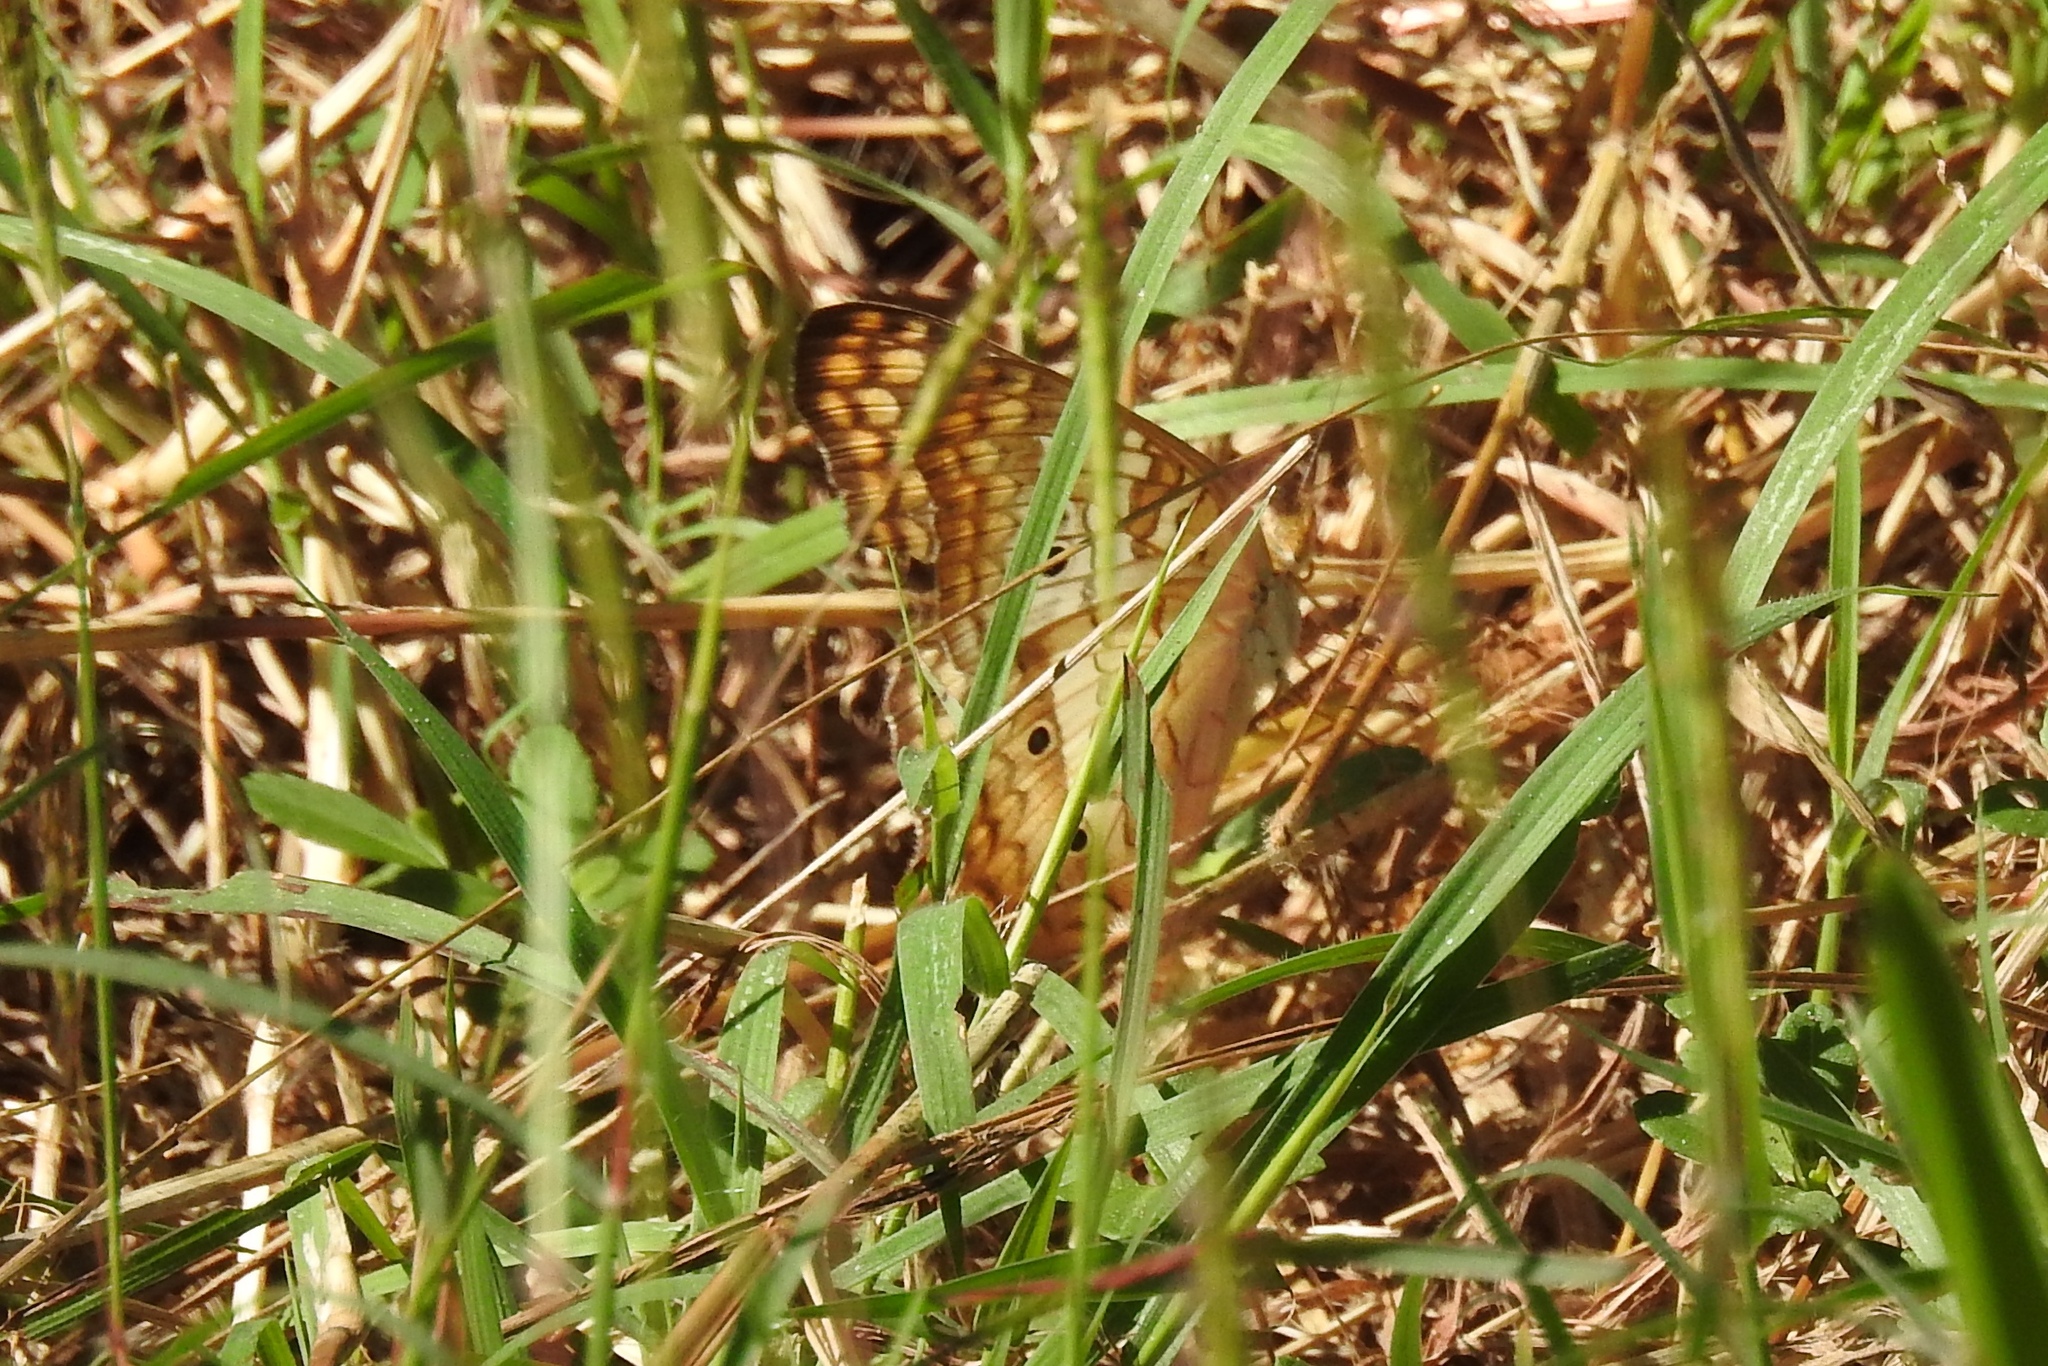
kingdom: Animalia
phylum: Arthropoda
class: Insecta
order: Lepidoptera
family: Nymphalidae
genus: Anartia
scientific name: Anartia jatrophae
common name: White peacock
